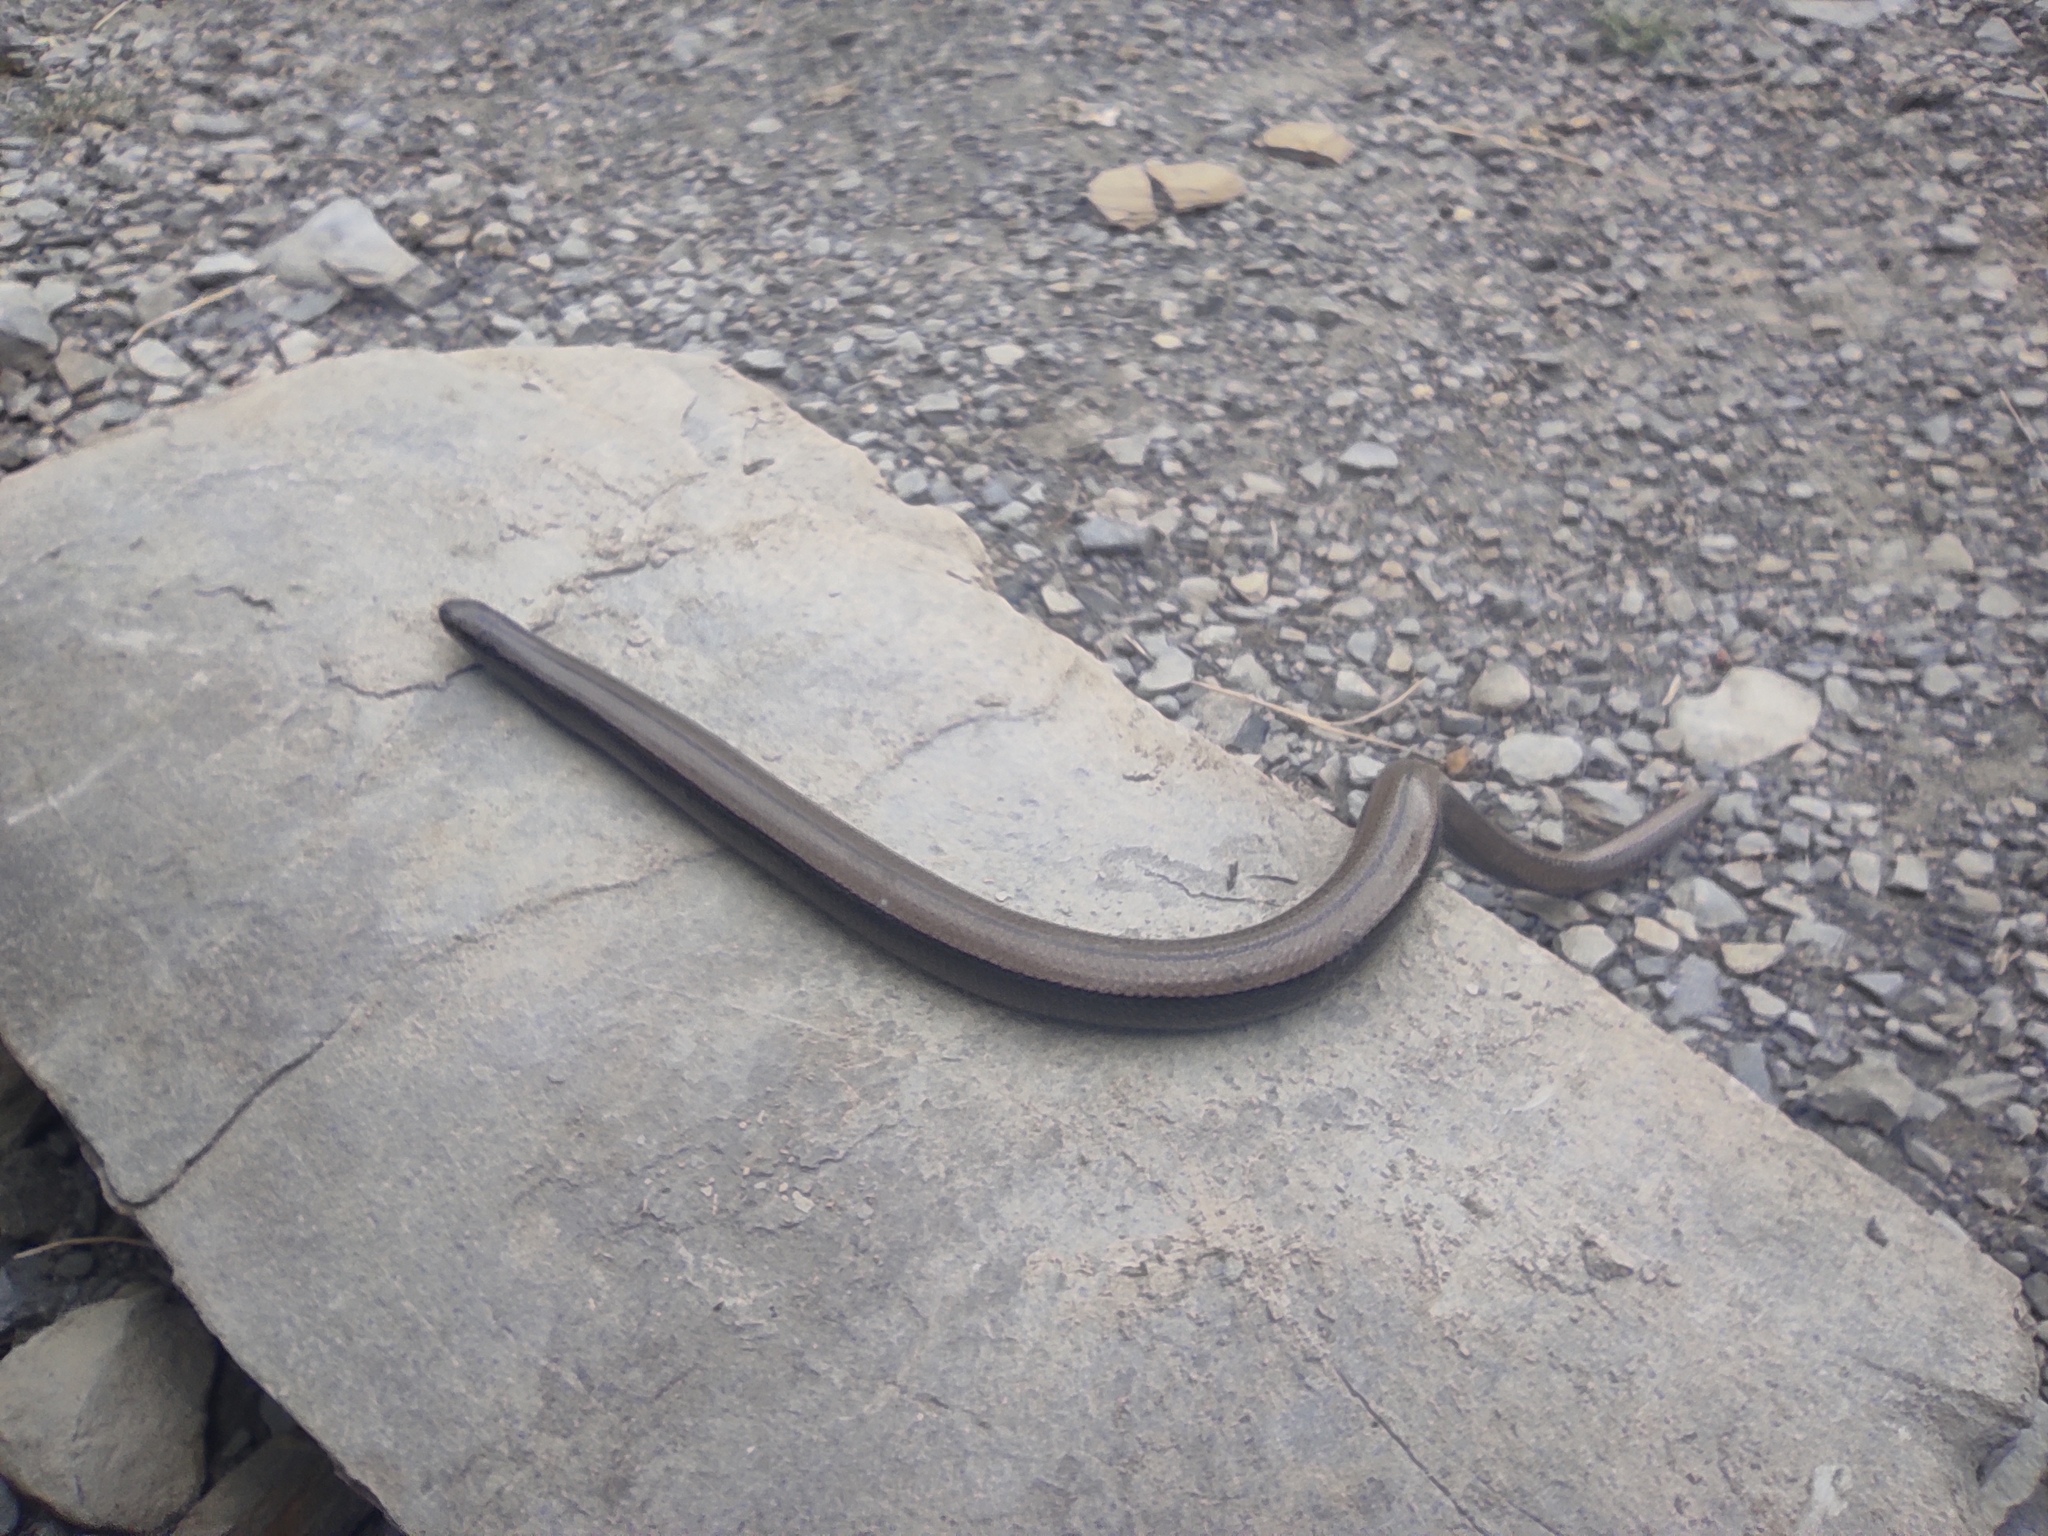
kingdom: Animalia
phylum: Chordata
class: Squamata
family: Anguidae
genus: Anguis
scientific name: Anguis fragilis
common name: Slow worm
